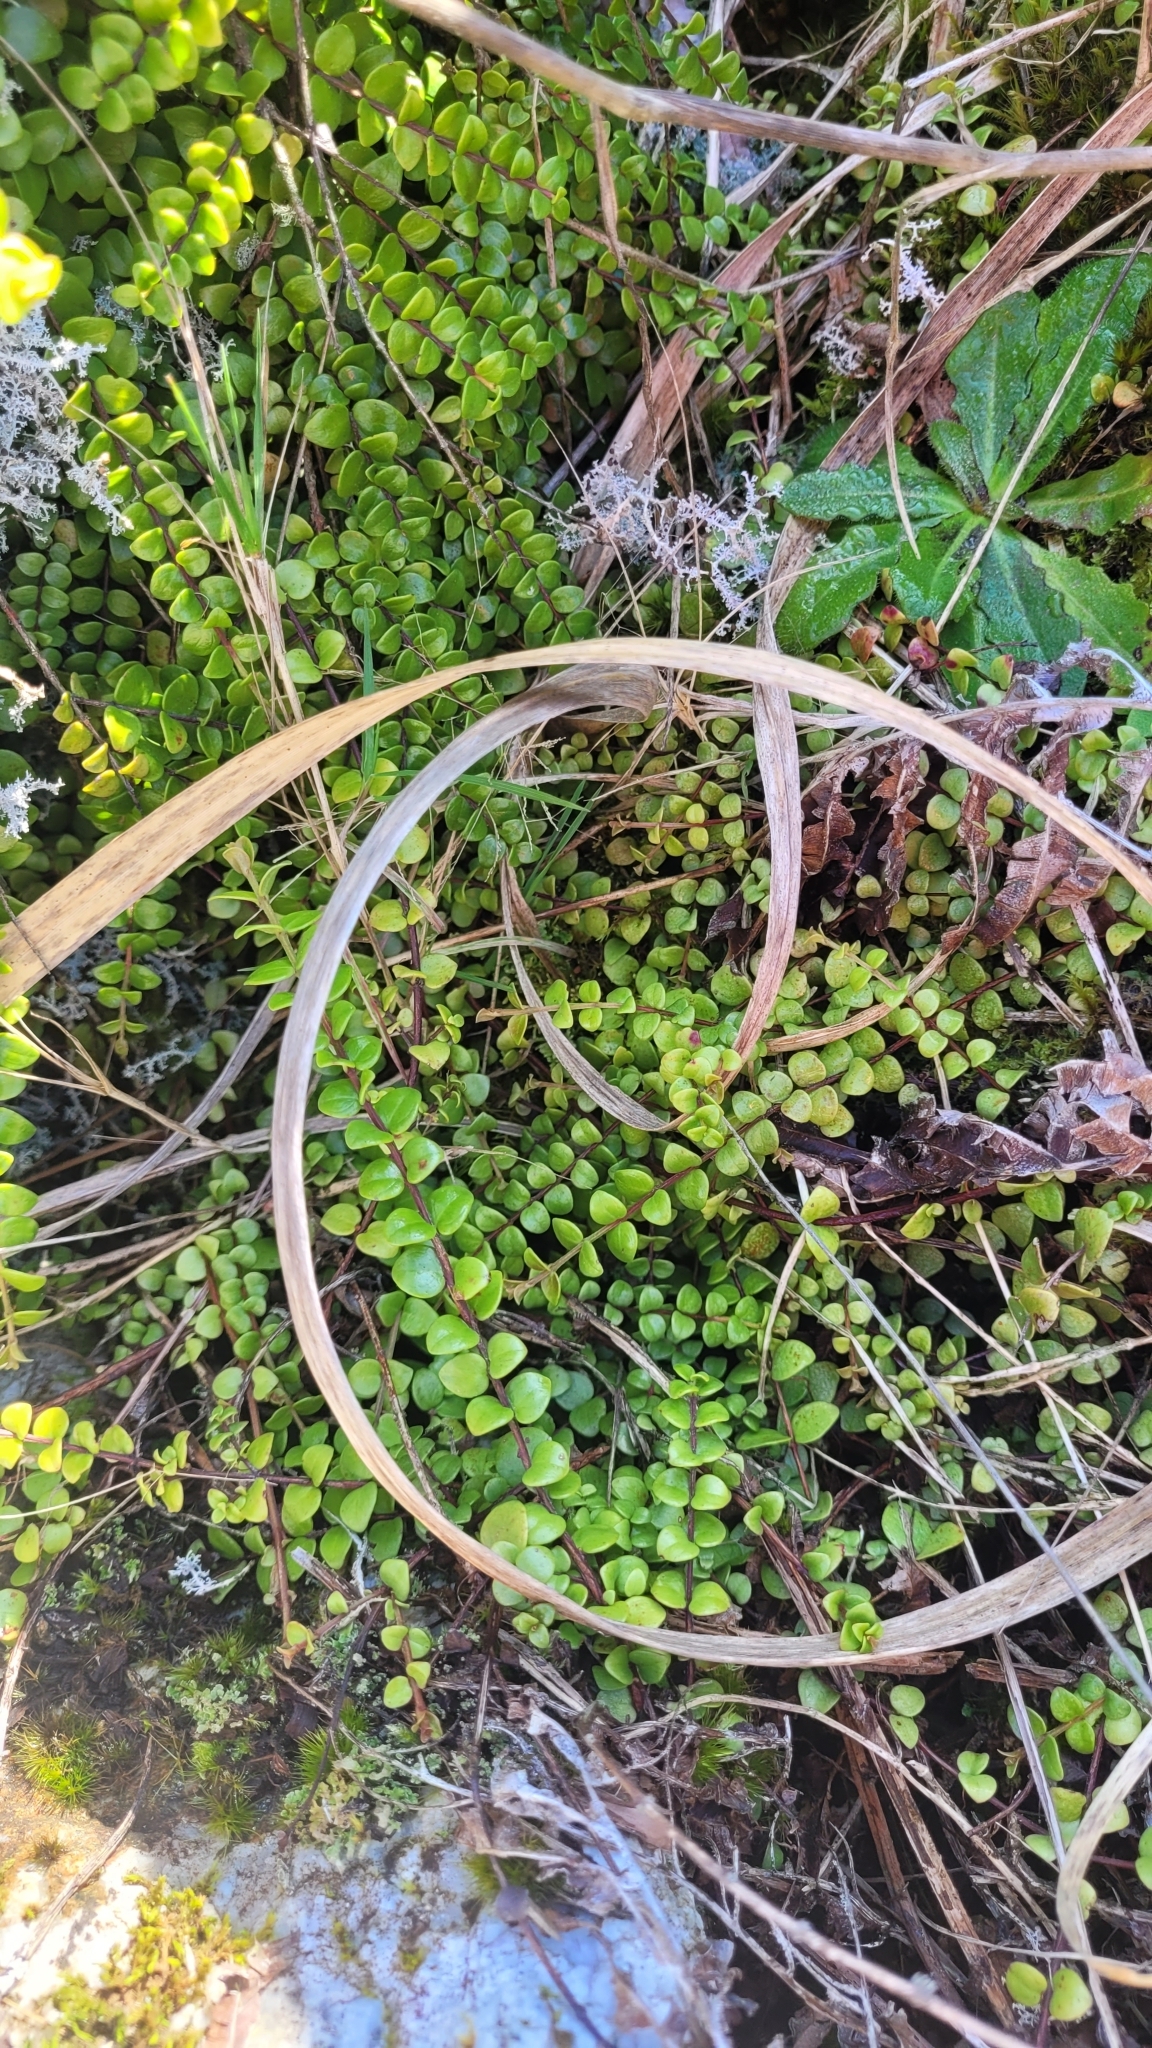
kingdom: Plantae
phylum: Tracheophyta
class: Magnoliopsida
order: Myrtales
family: Myrtaceae
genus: Metrosideros
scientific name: Metrosideros perforata
